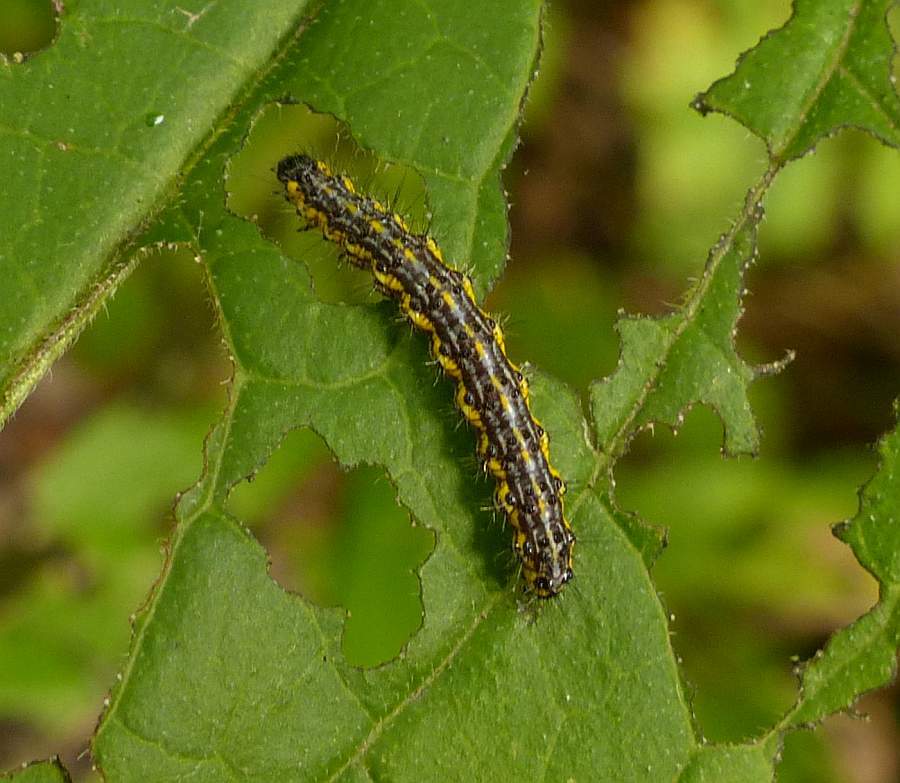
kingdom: Animalia
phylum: Arthropoda
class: Insecta
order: Lepidoptera
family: Erebidae
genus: Haploa
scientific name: Haploa contigua
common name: Neighbor moth
